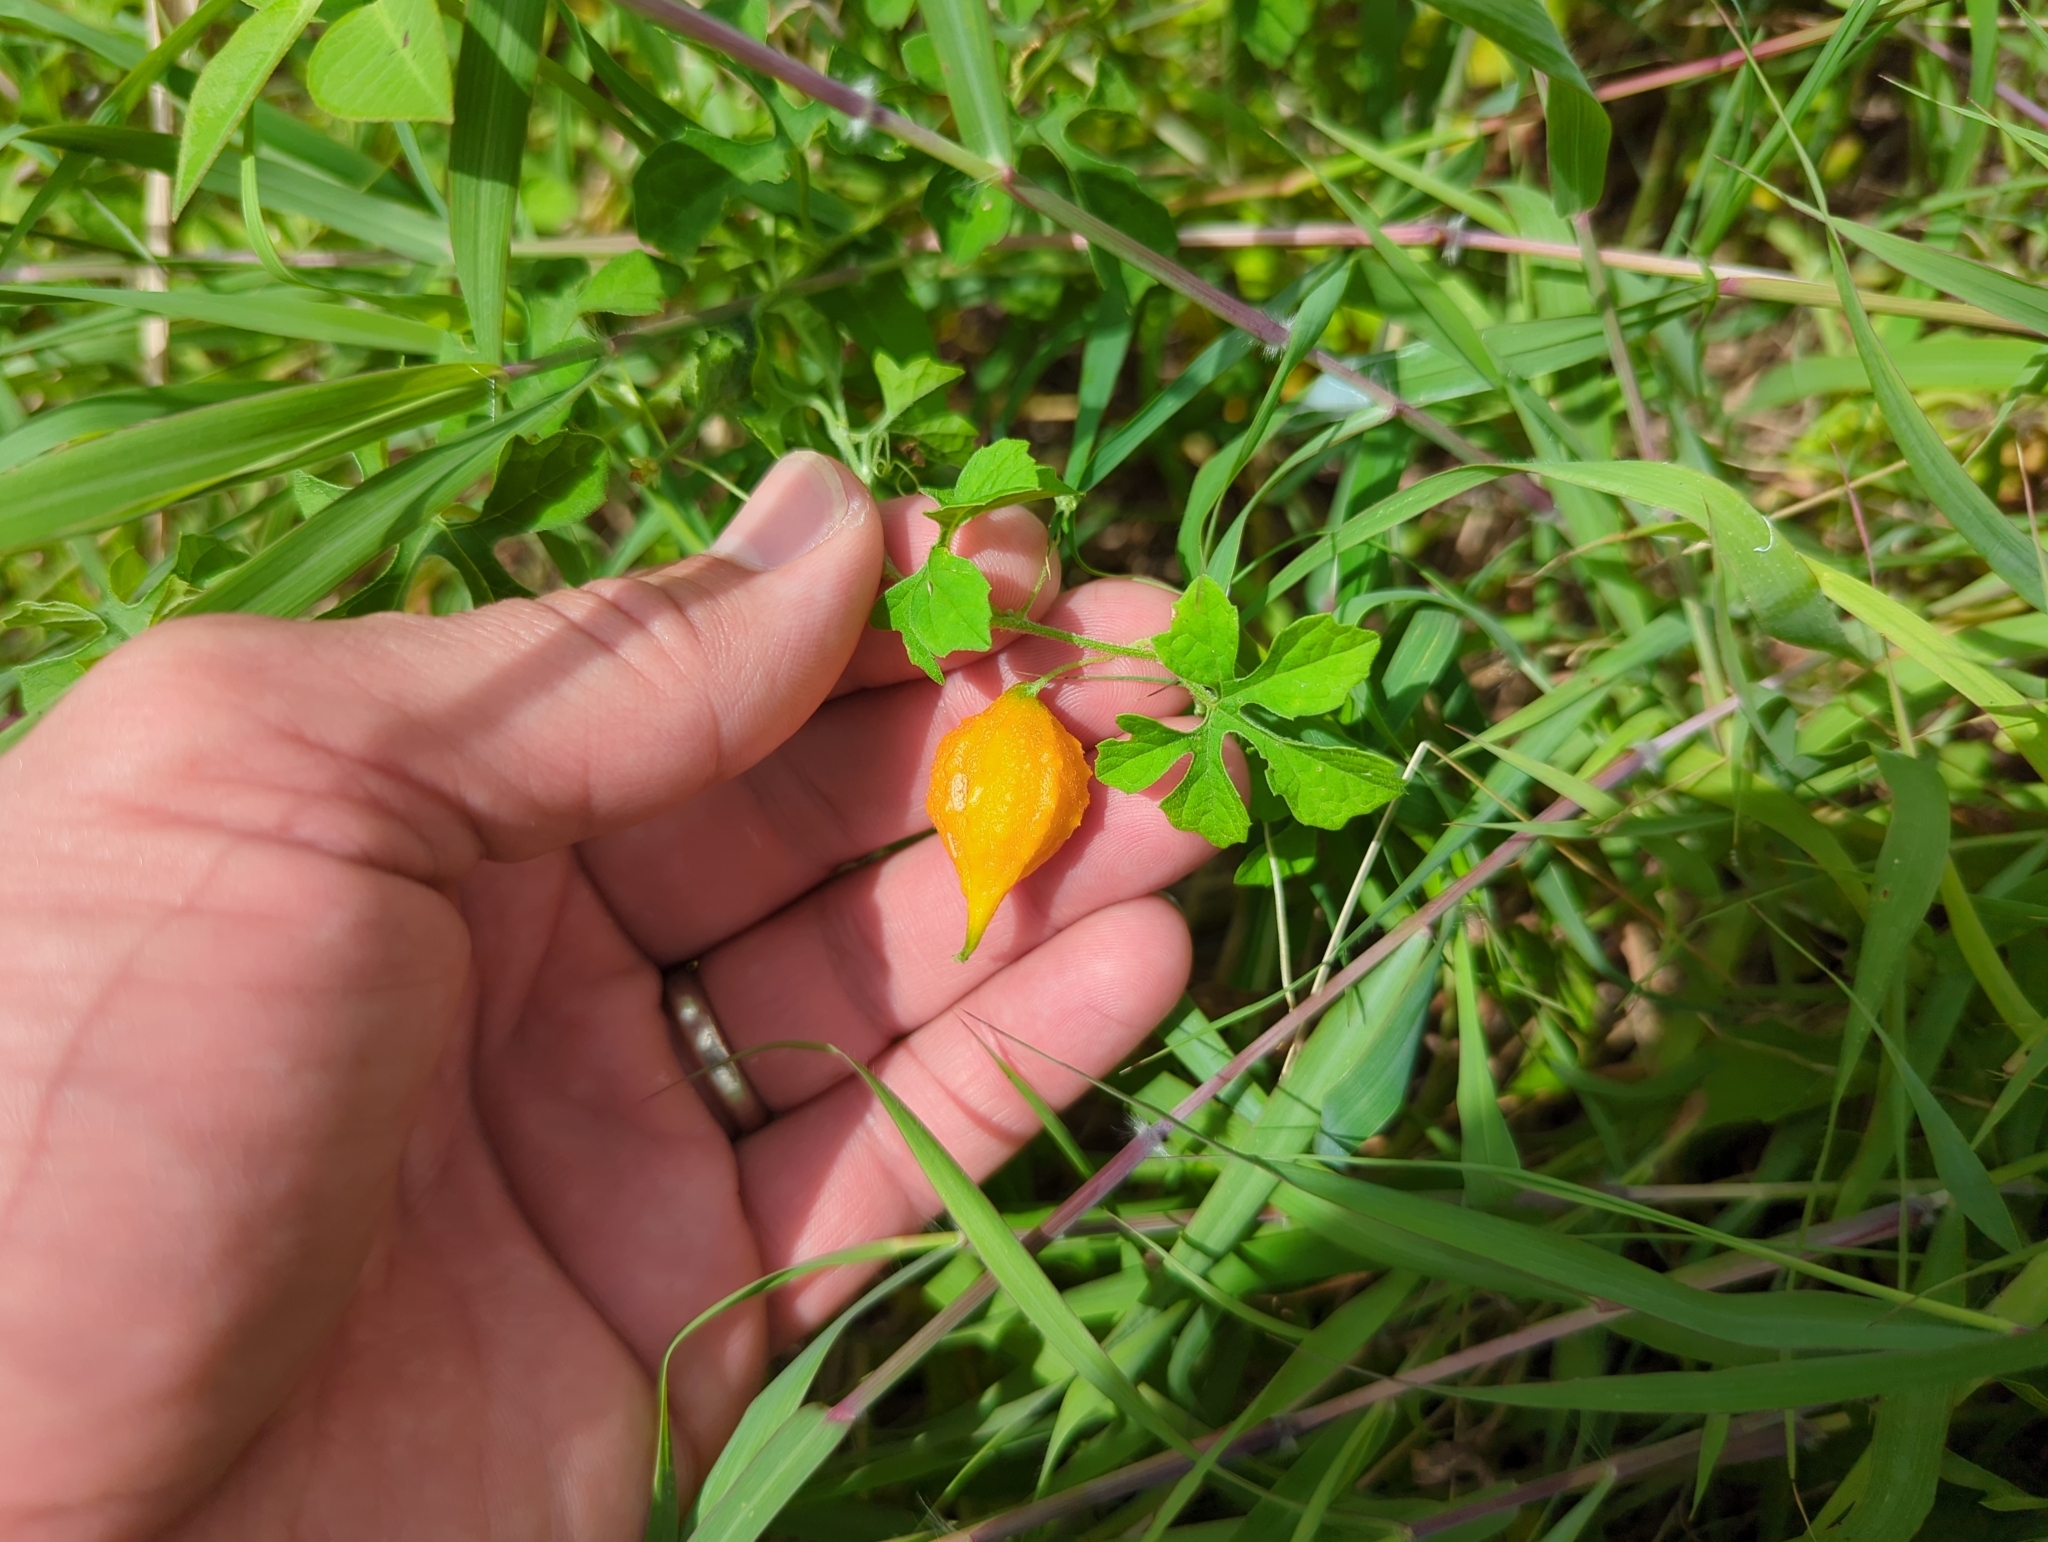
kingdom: Plantae
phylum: Tracheophyta
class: Magnoliopsida
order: Cucurbitales
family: Cucurbitaceae
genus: Momordica
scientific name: Momordica charantia
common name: Balsampear
